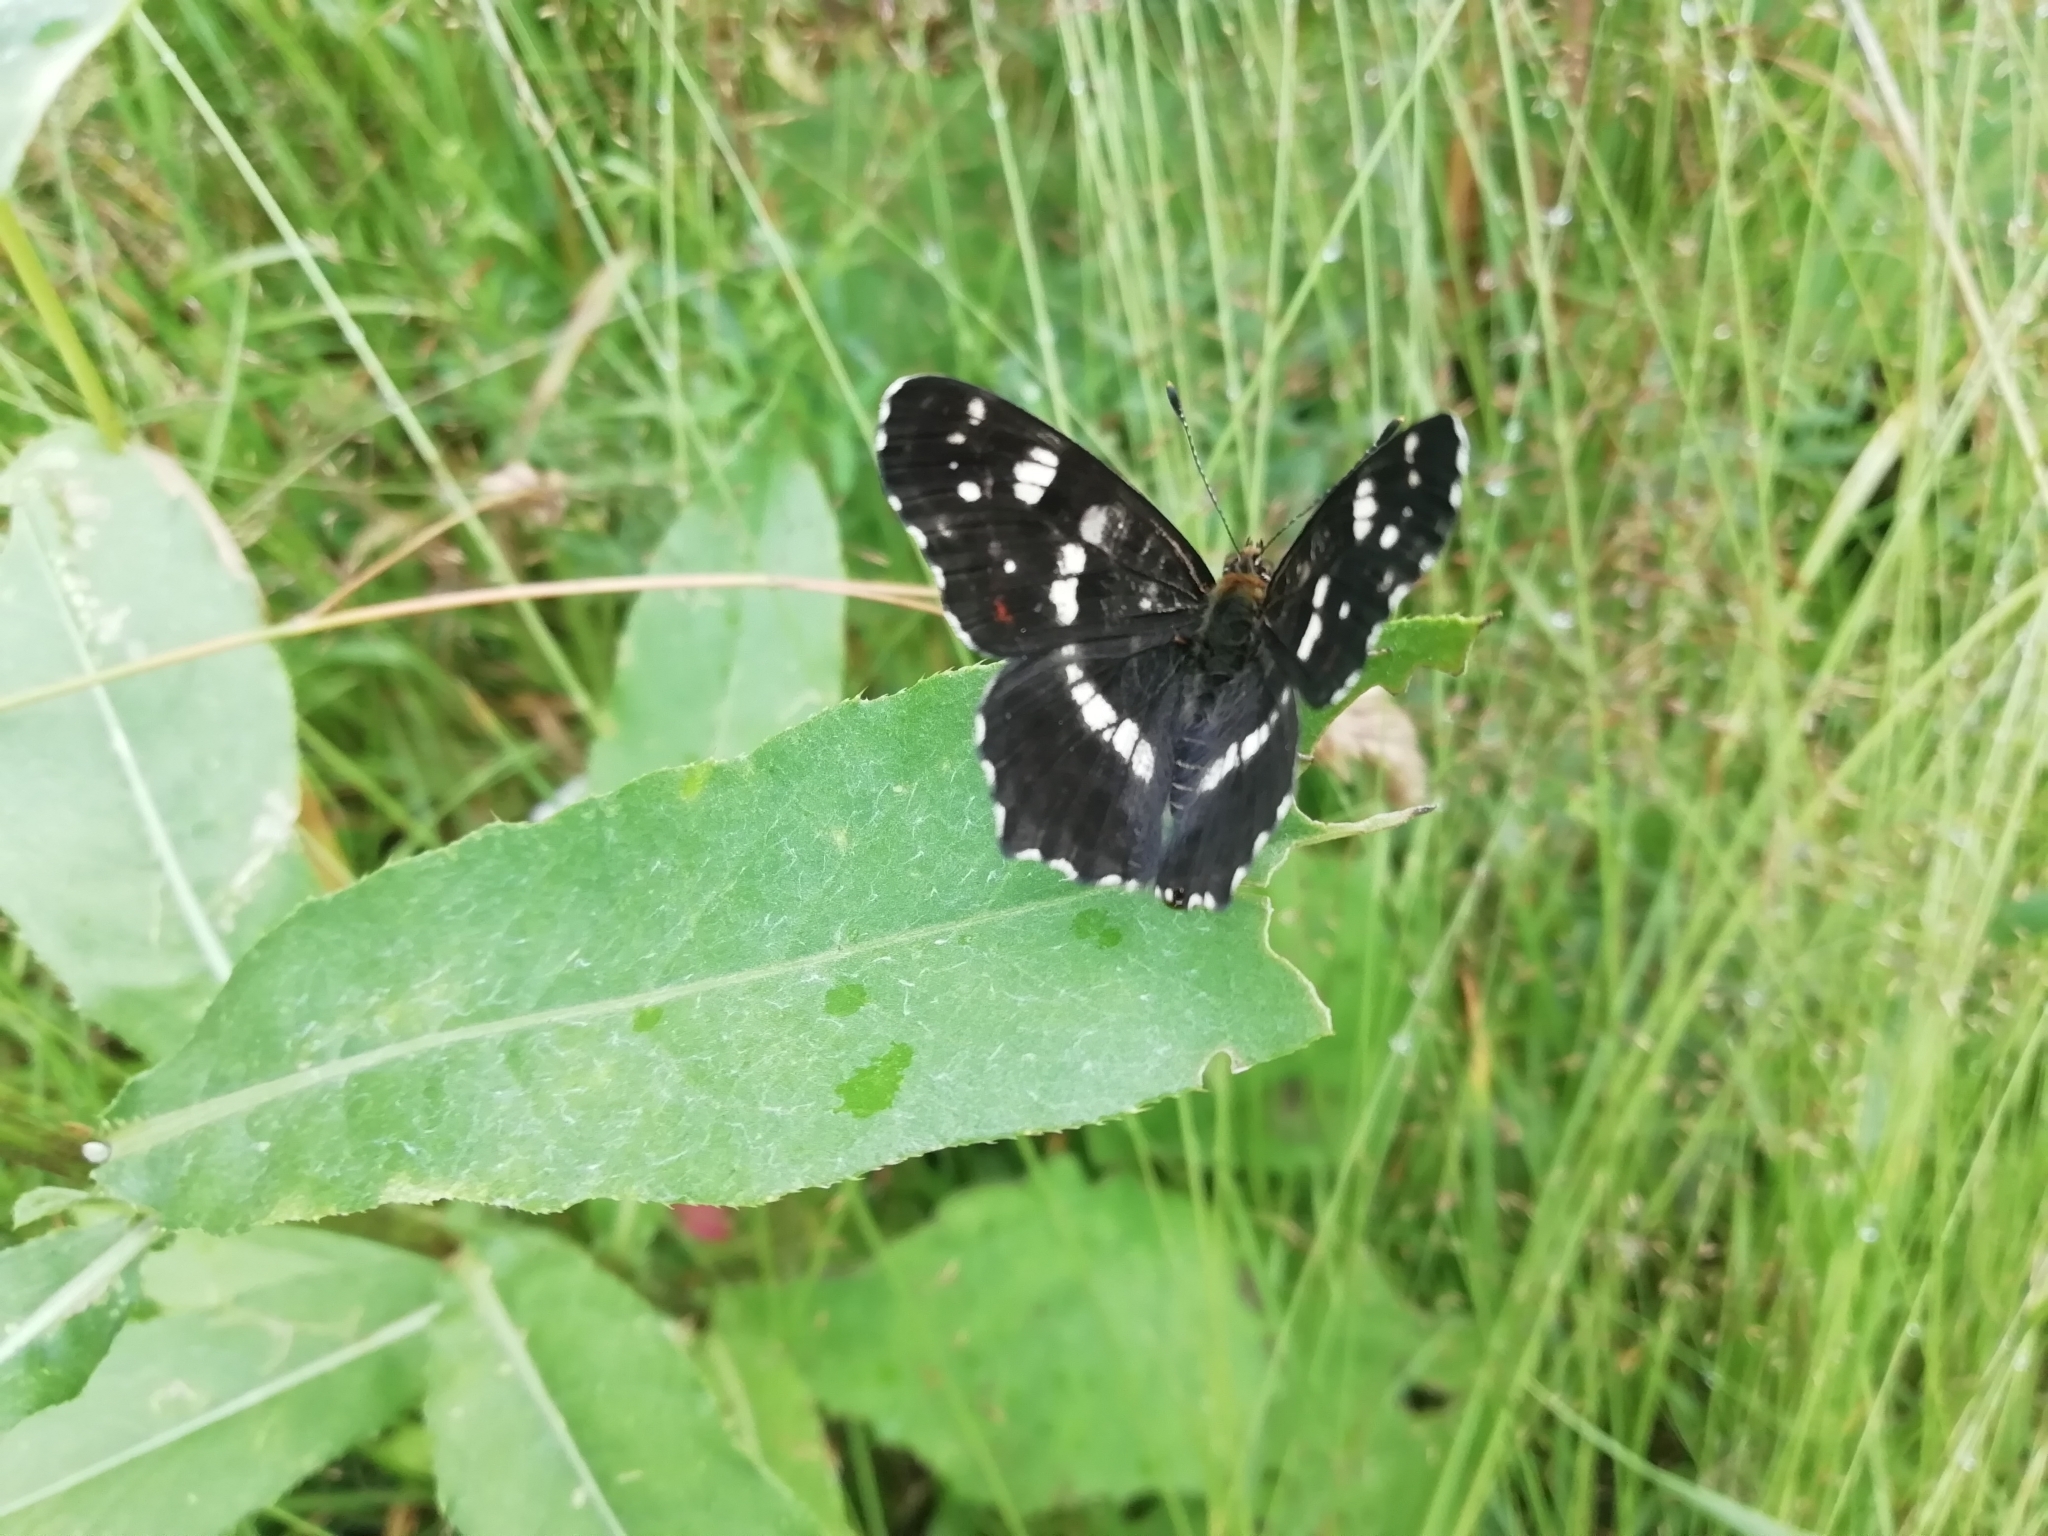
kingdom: Animalia
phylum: Arthropoda
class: Insecta
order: Lepidoptera
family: Nymphalidae
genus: Araschnia
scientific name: Araschnia levana
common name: Map butterfly
